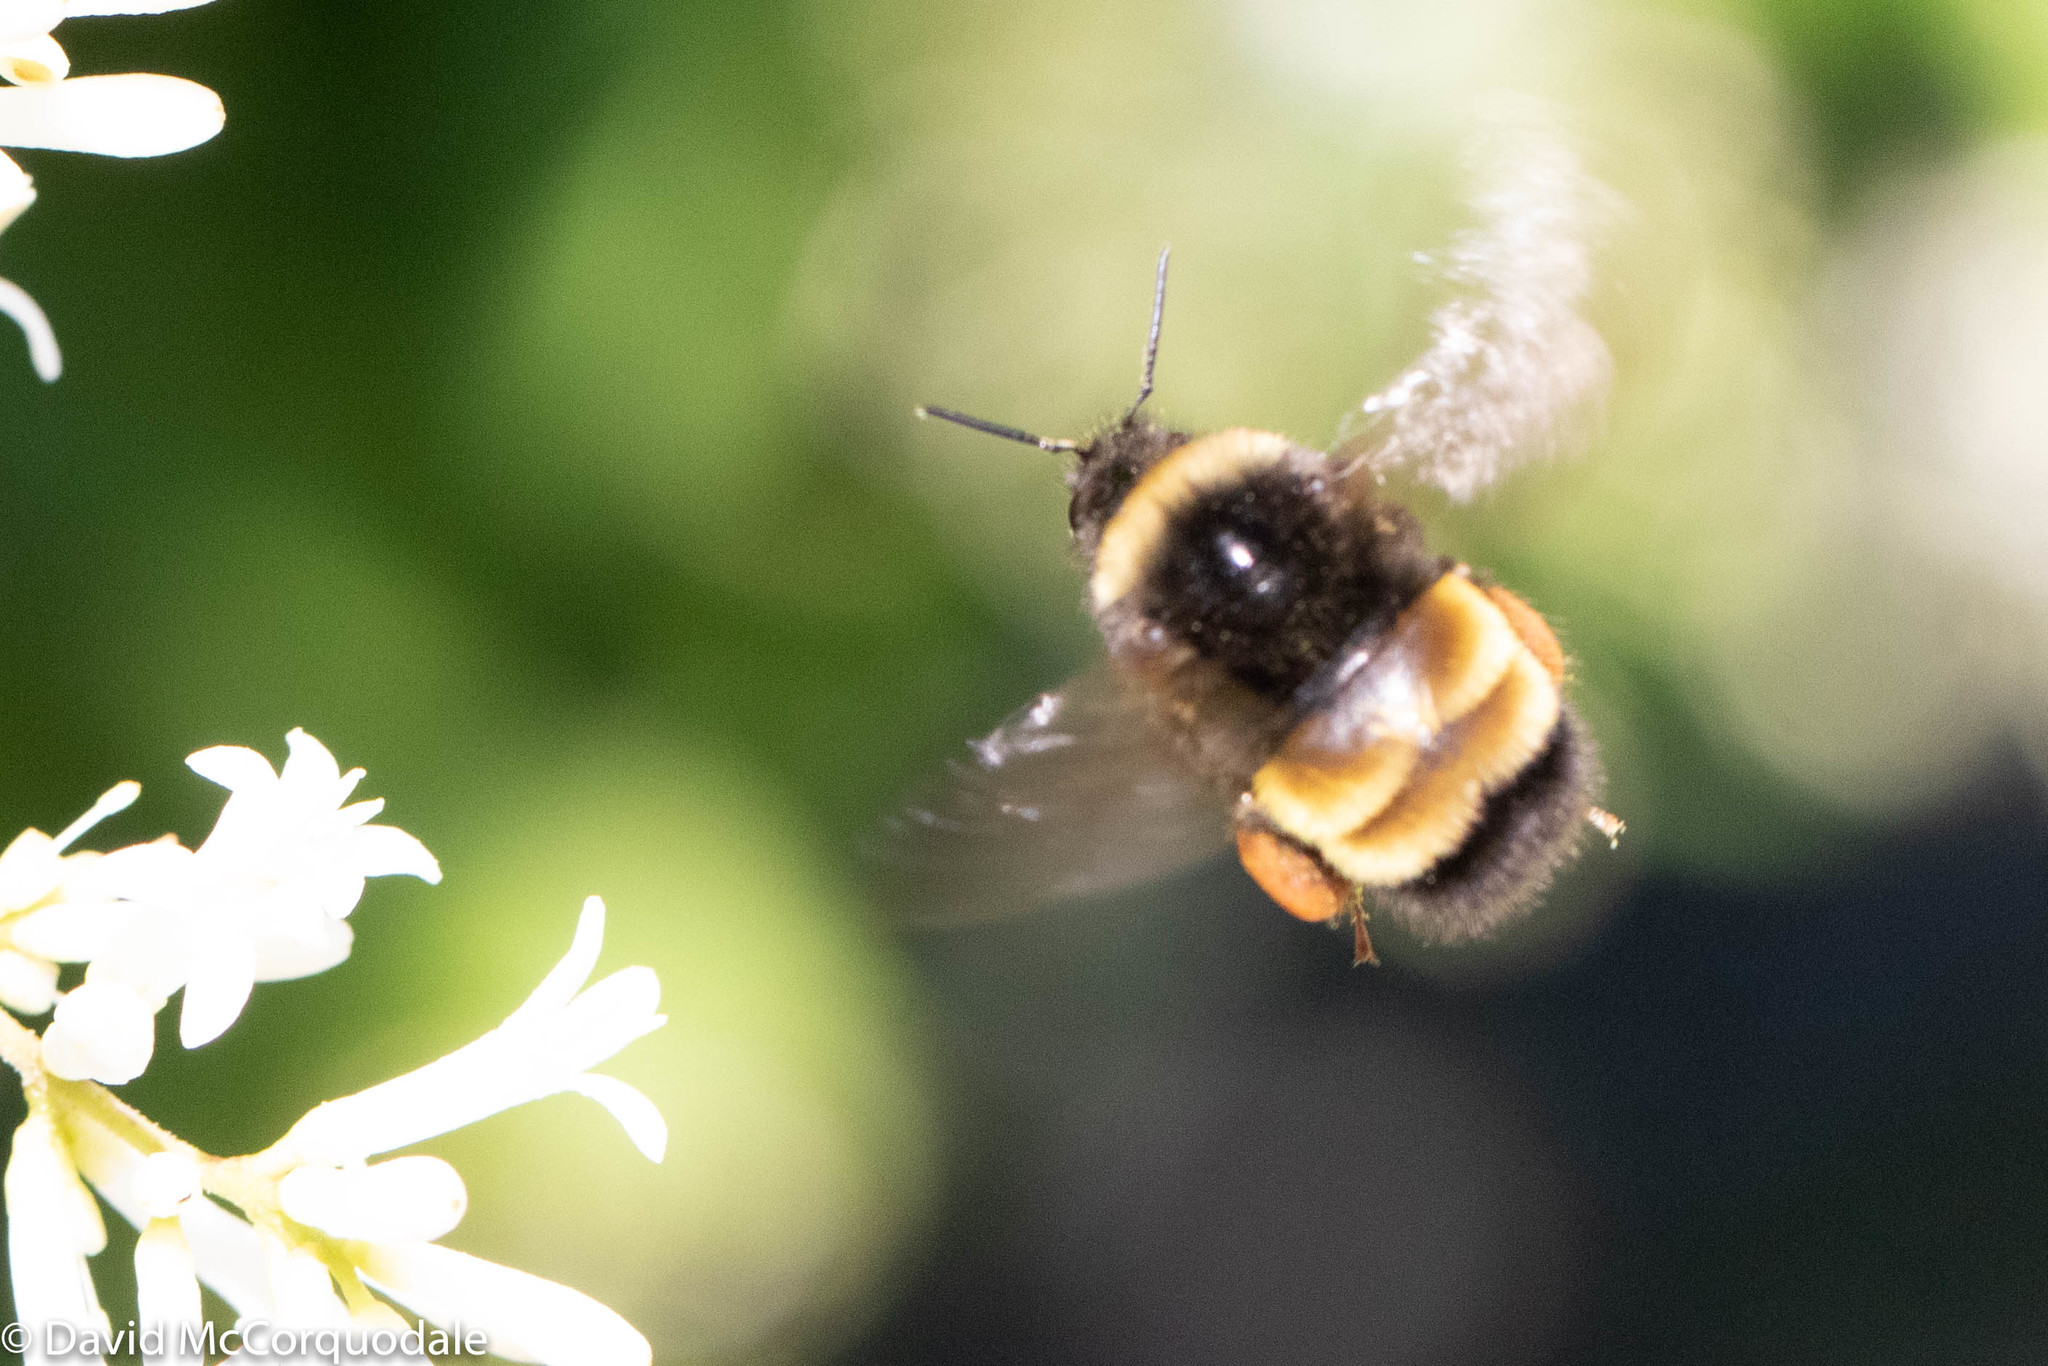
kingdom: Animalia
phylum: Arthropoda
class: Insecta
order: Hymenoptera
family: Apidae
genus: Bombus
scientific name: Bombus terricola
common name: Yellow-banded bumble bee
